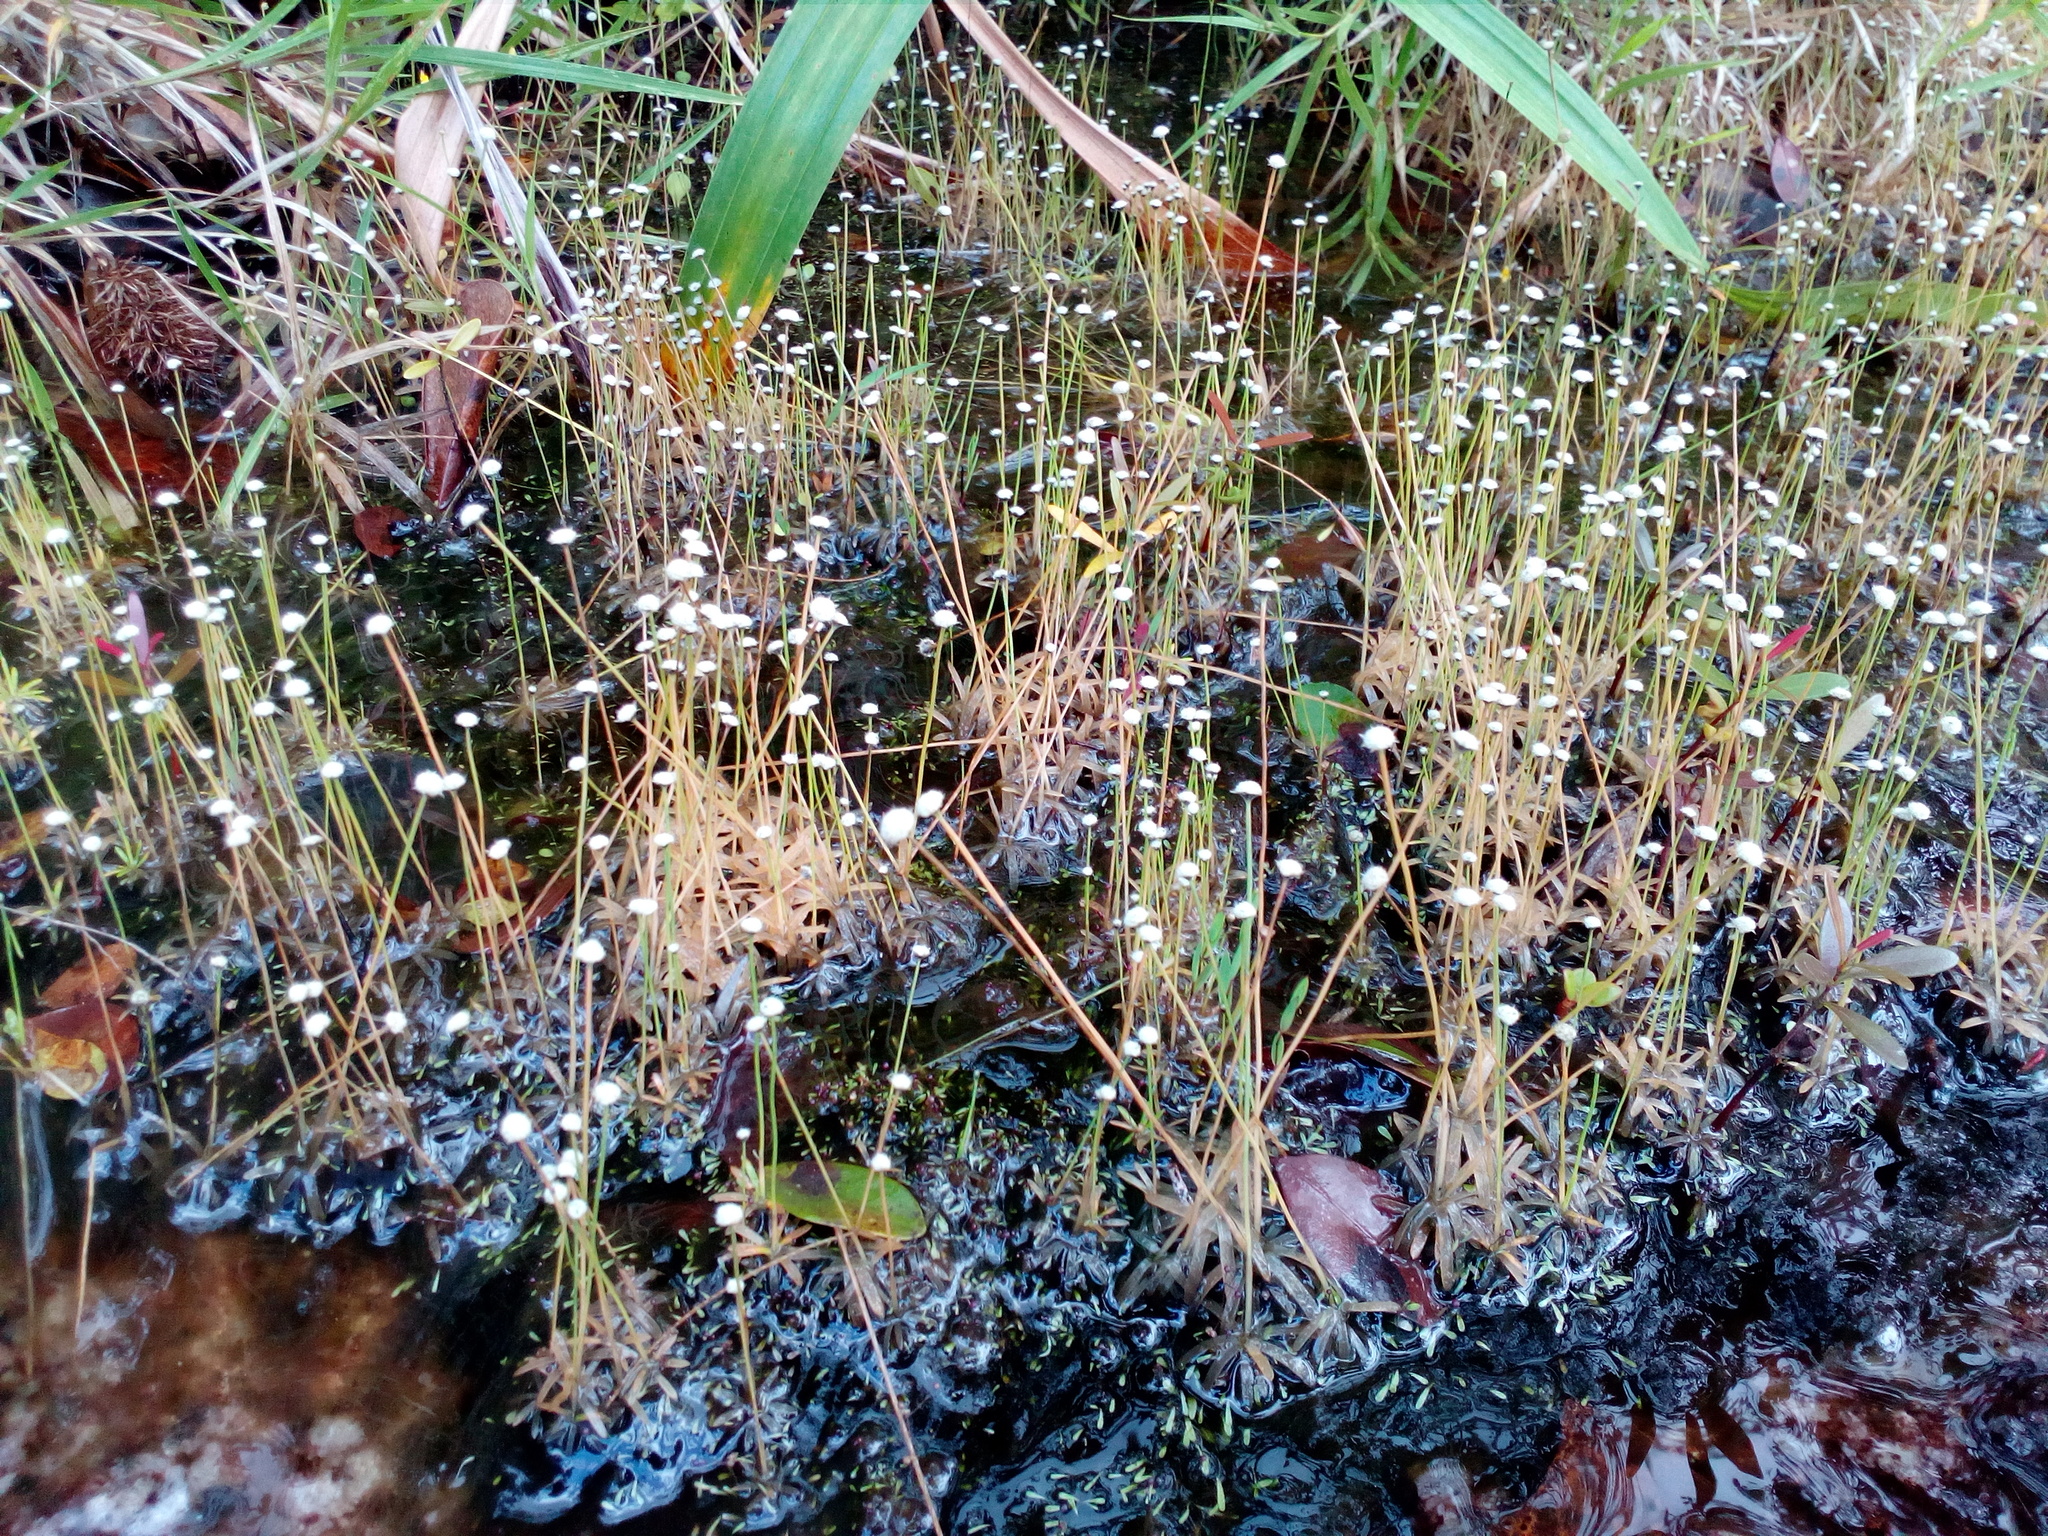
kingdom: Plantae
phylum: Tracheophyta
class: Liliopsida
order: Poales
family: Eriocaulaceae
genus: Paepalanthus
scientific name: Paepalanthus oyapockensis
